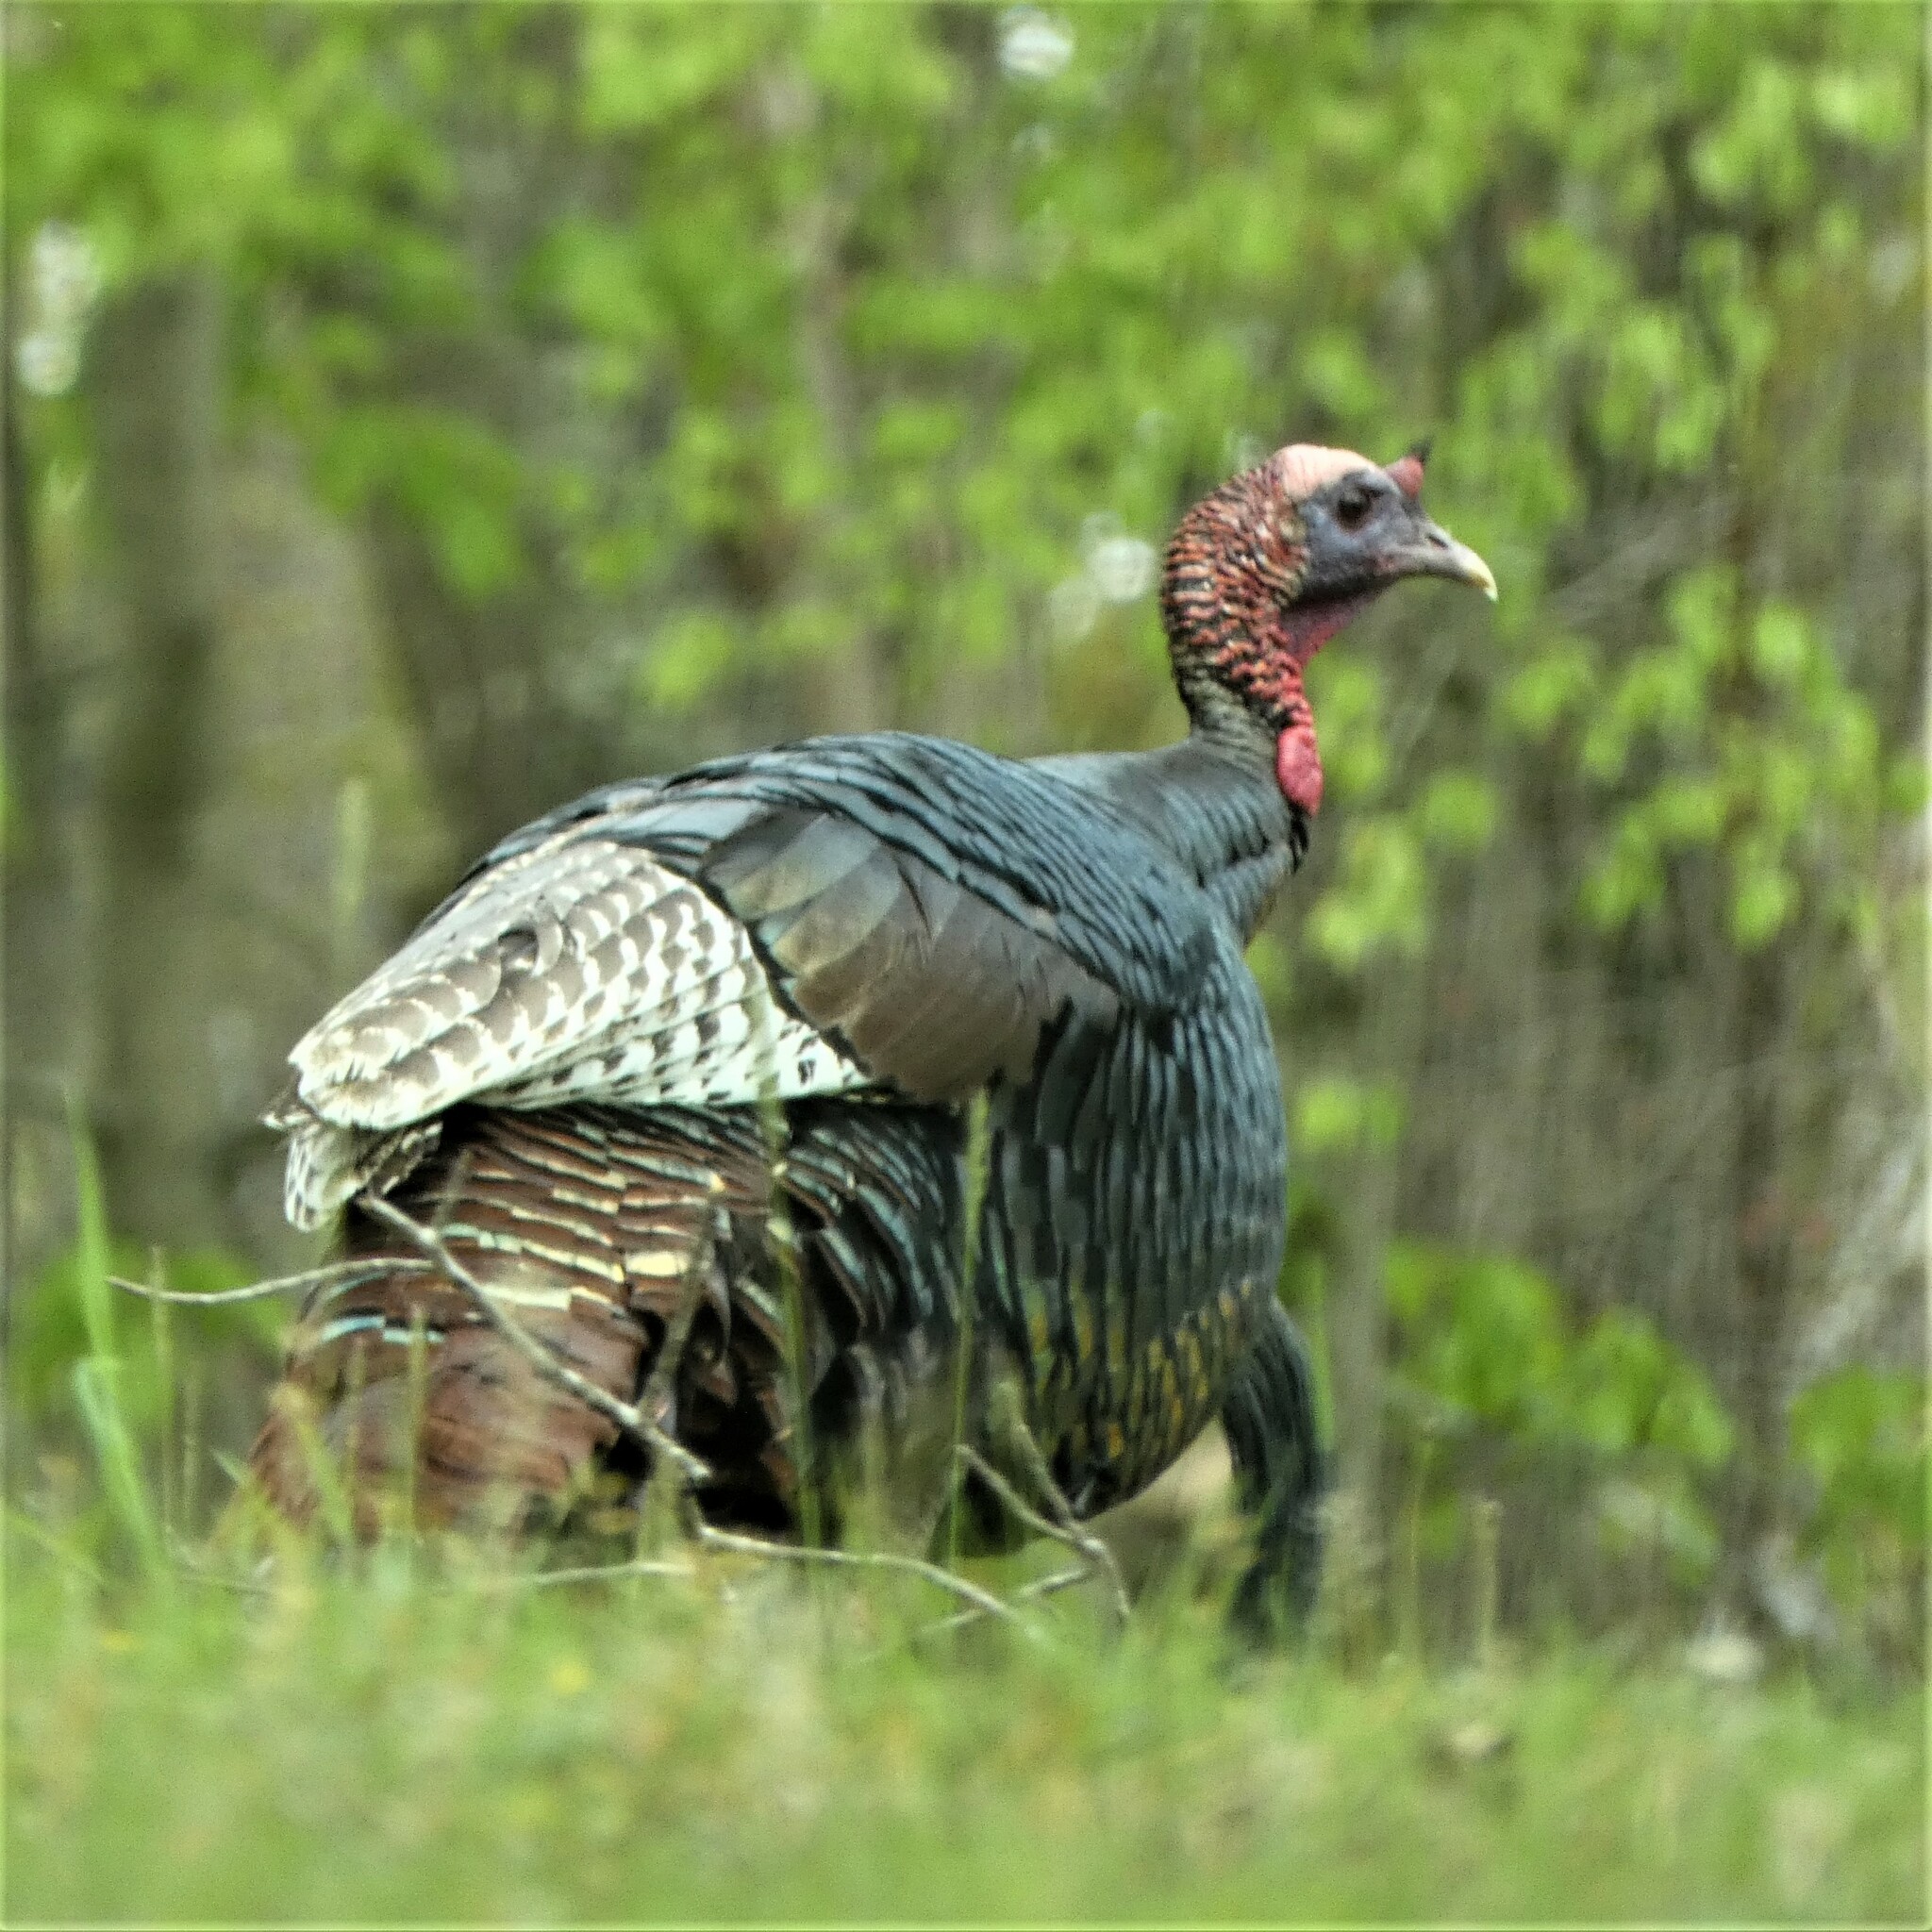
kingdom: Animalia
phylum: Chordata
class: Aves
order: Galliformes
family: Phasianidae
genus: Meleagris
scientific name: Meleagris gallopavo
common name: Wild turkey
